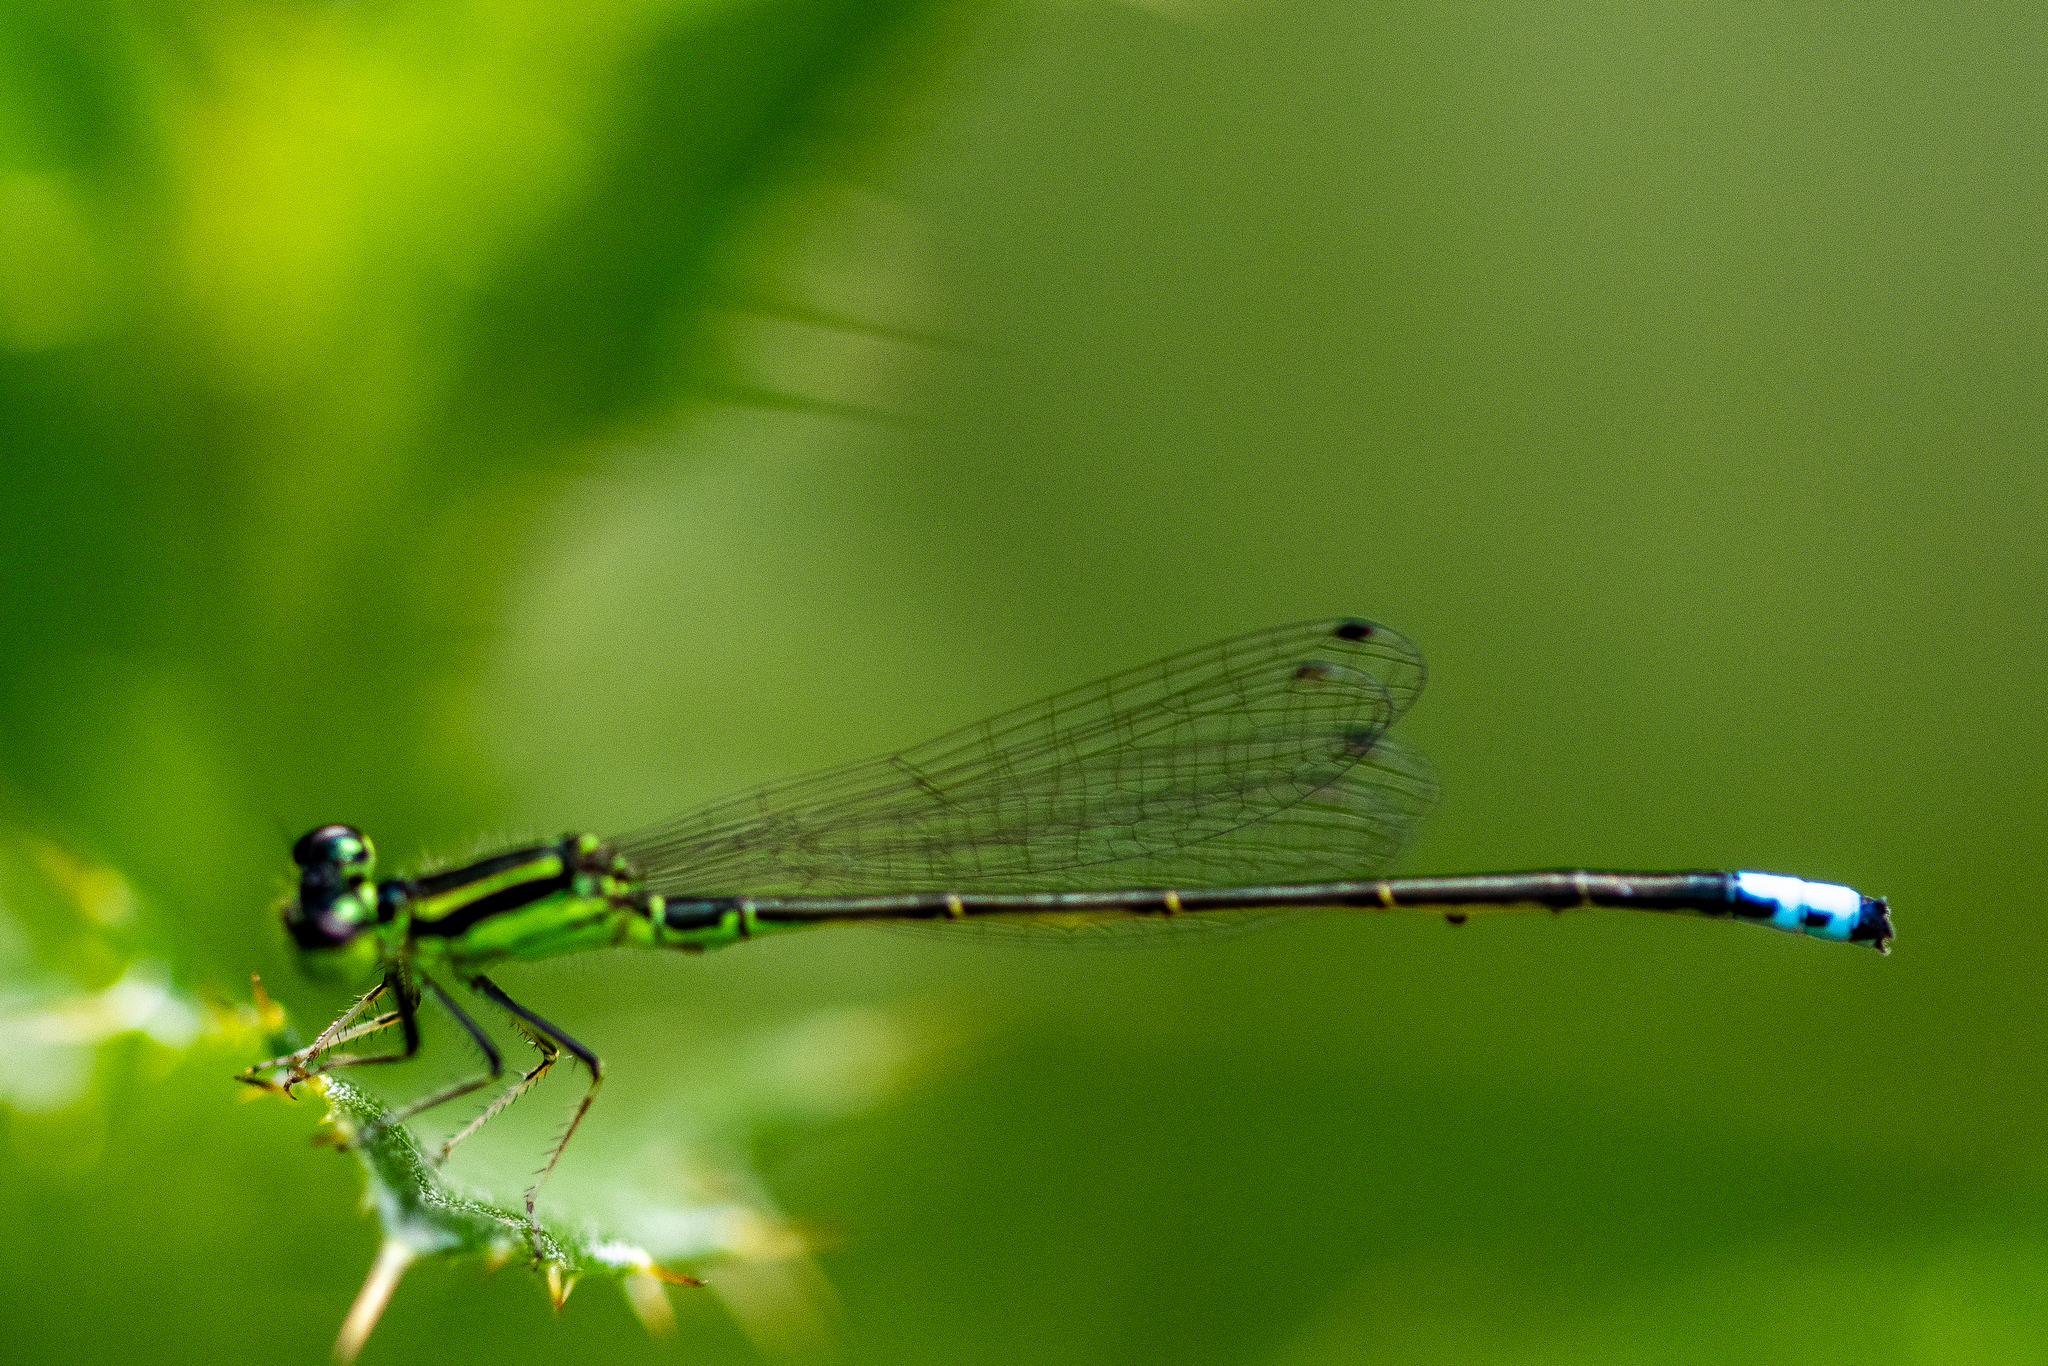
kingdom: Animalia
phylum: Arthropoda
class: Insecta
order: Odonata
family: Coenagrionidae
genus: Ischnura
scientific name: Ischnura verticalis
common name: Eastern forktail
